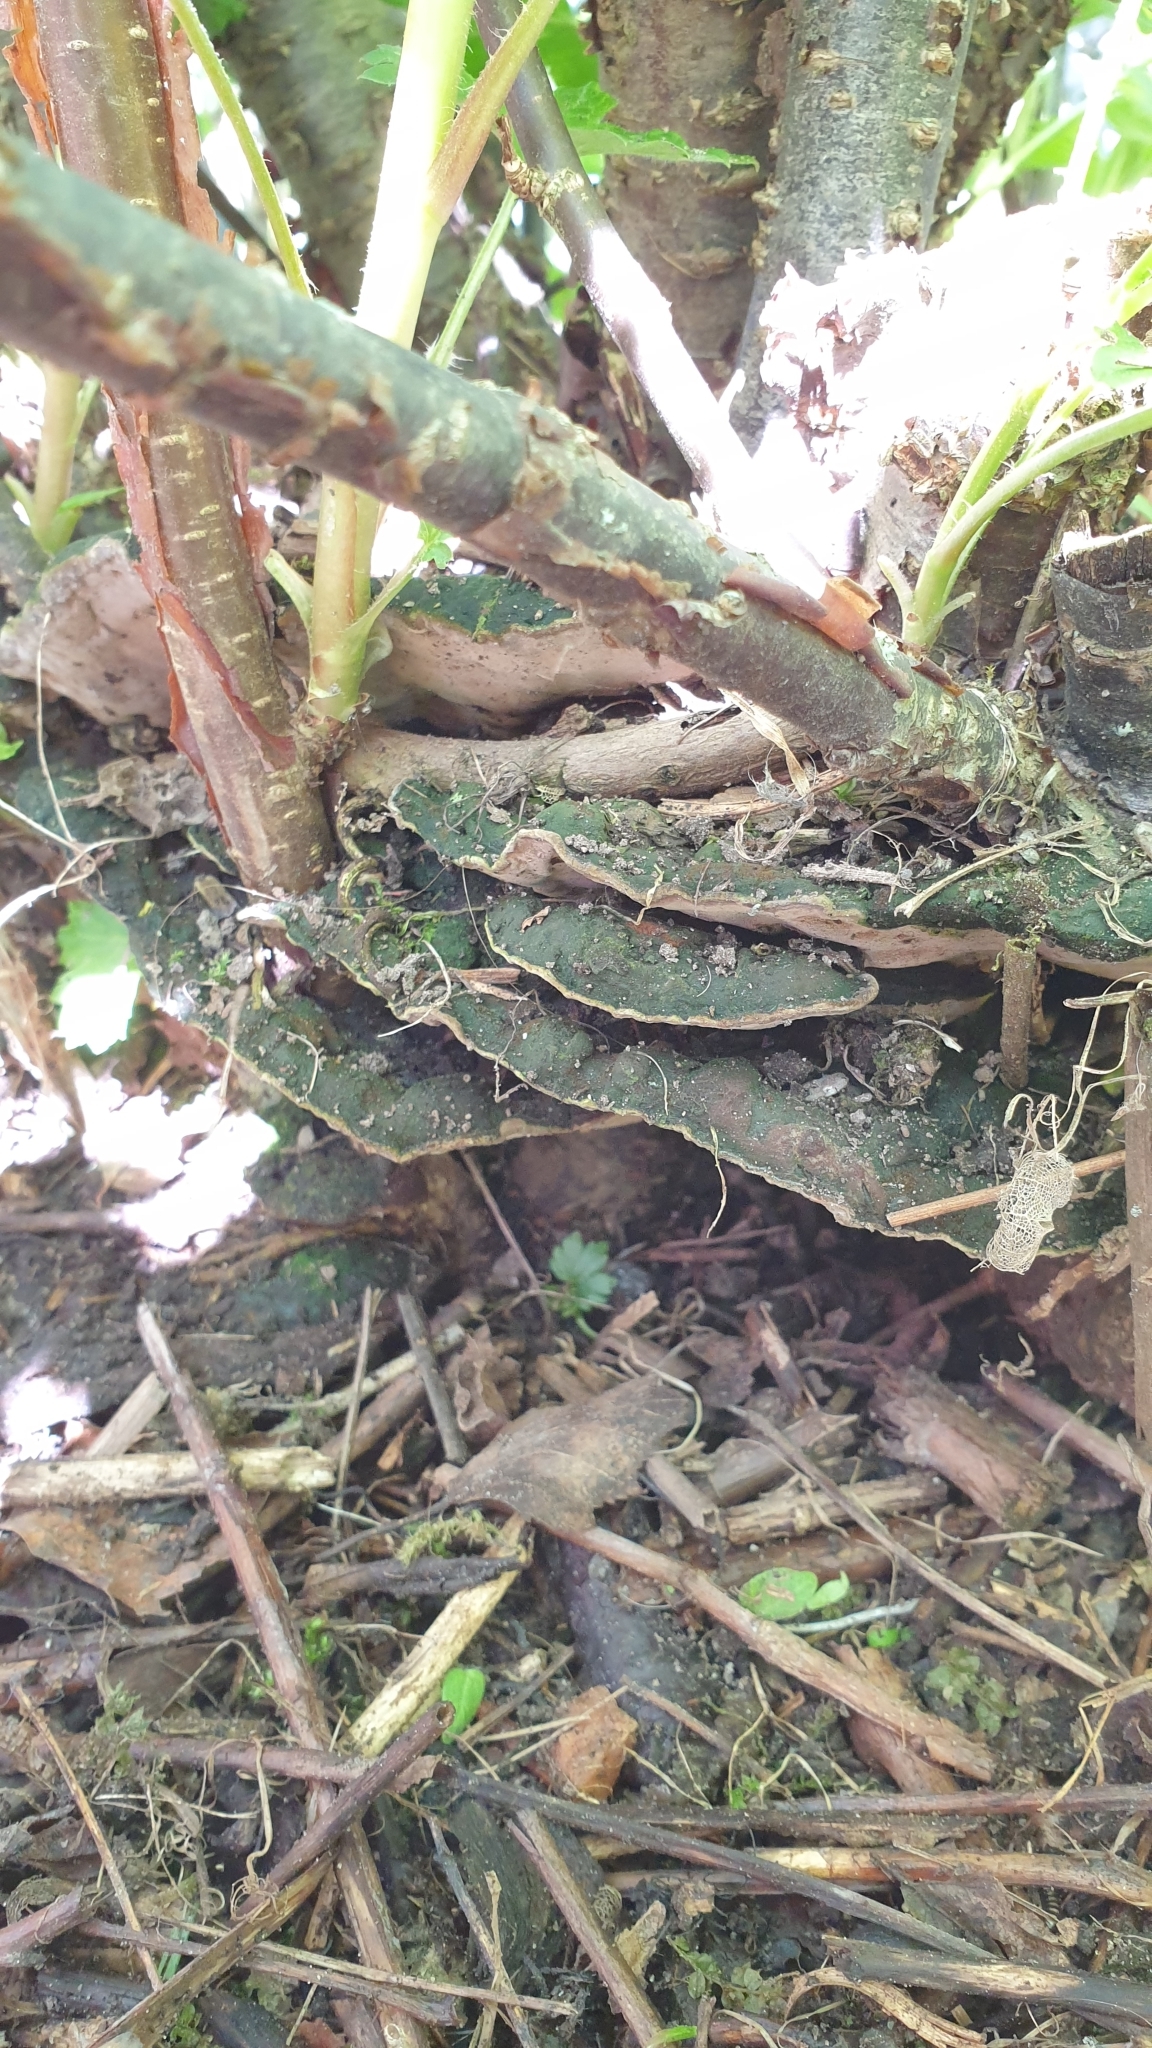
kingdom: Fungi
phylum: Basidiomycota
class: Agaricomycetes
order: Hymenochaetales
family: Hymenochaetaceae
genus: Phylloporia
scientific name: Phylloporia ribis
